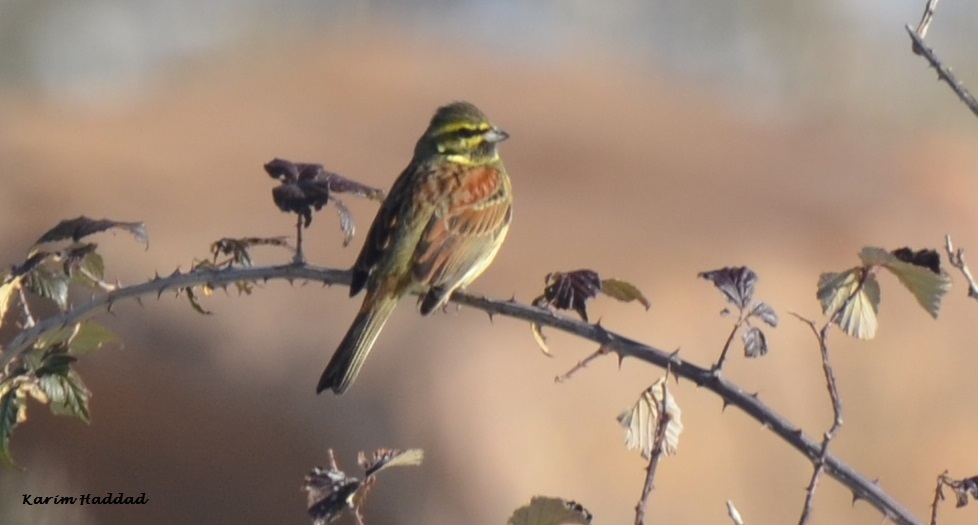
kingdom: Animalia
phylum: Chordata
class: Aves
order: Passeriformes
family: Emberizidae
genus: Emberiza
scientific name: Emberiza cirlus
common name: Cirl bunting
